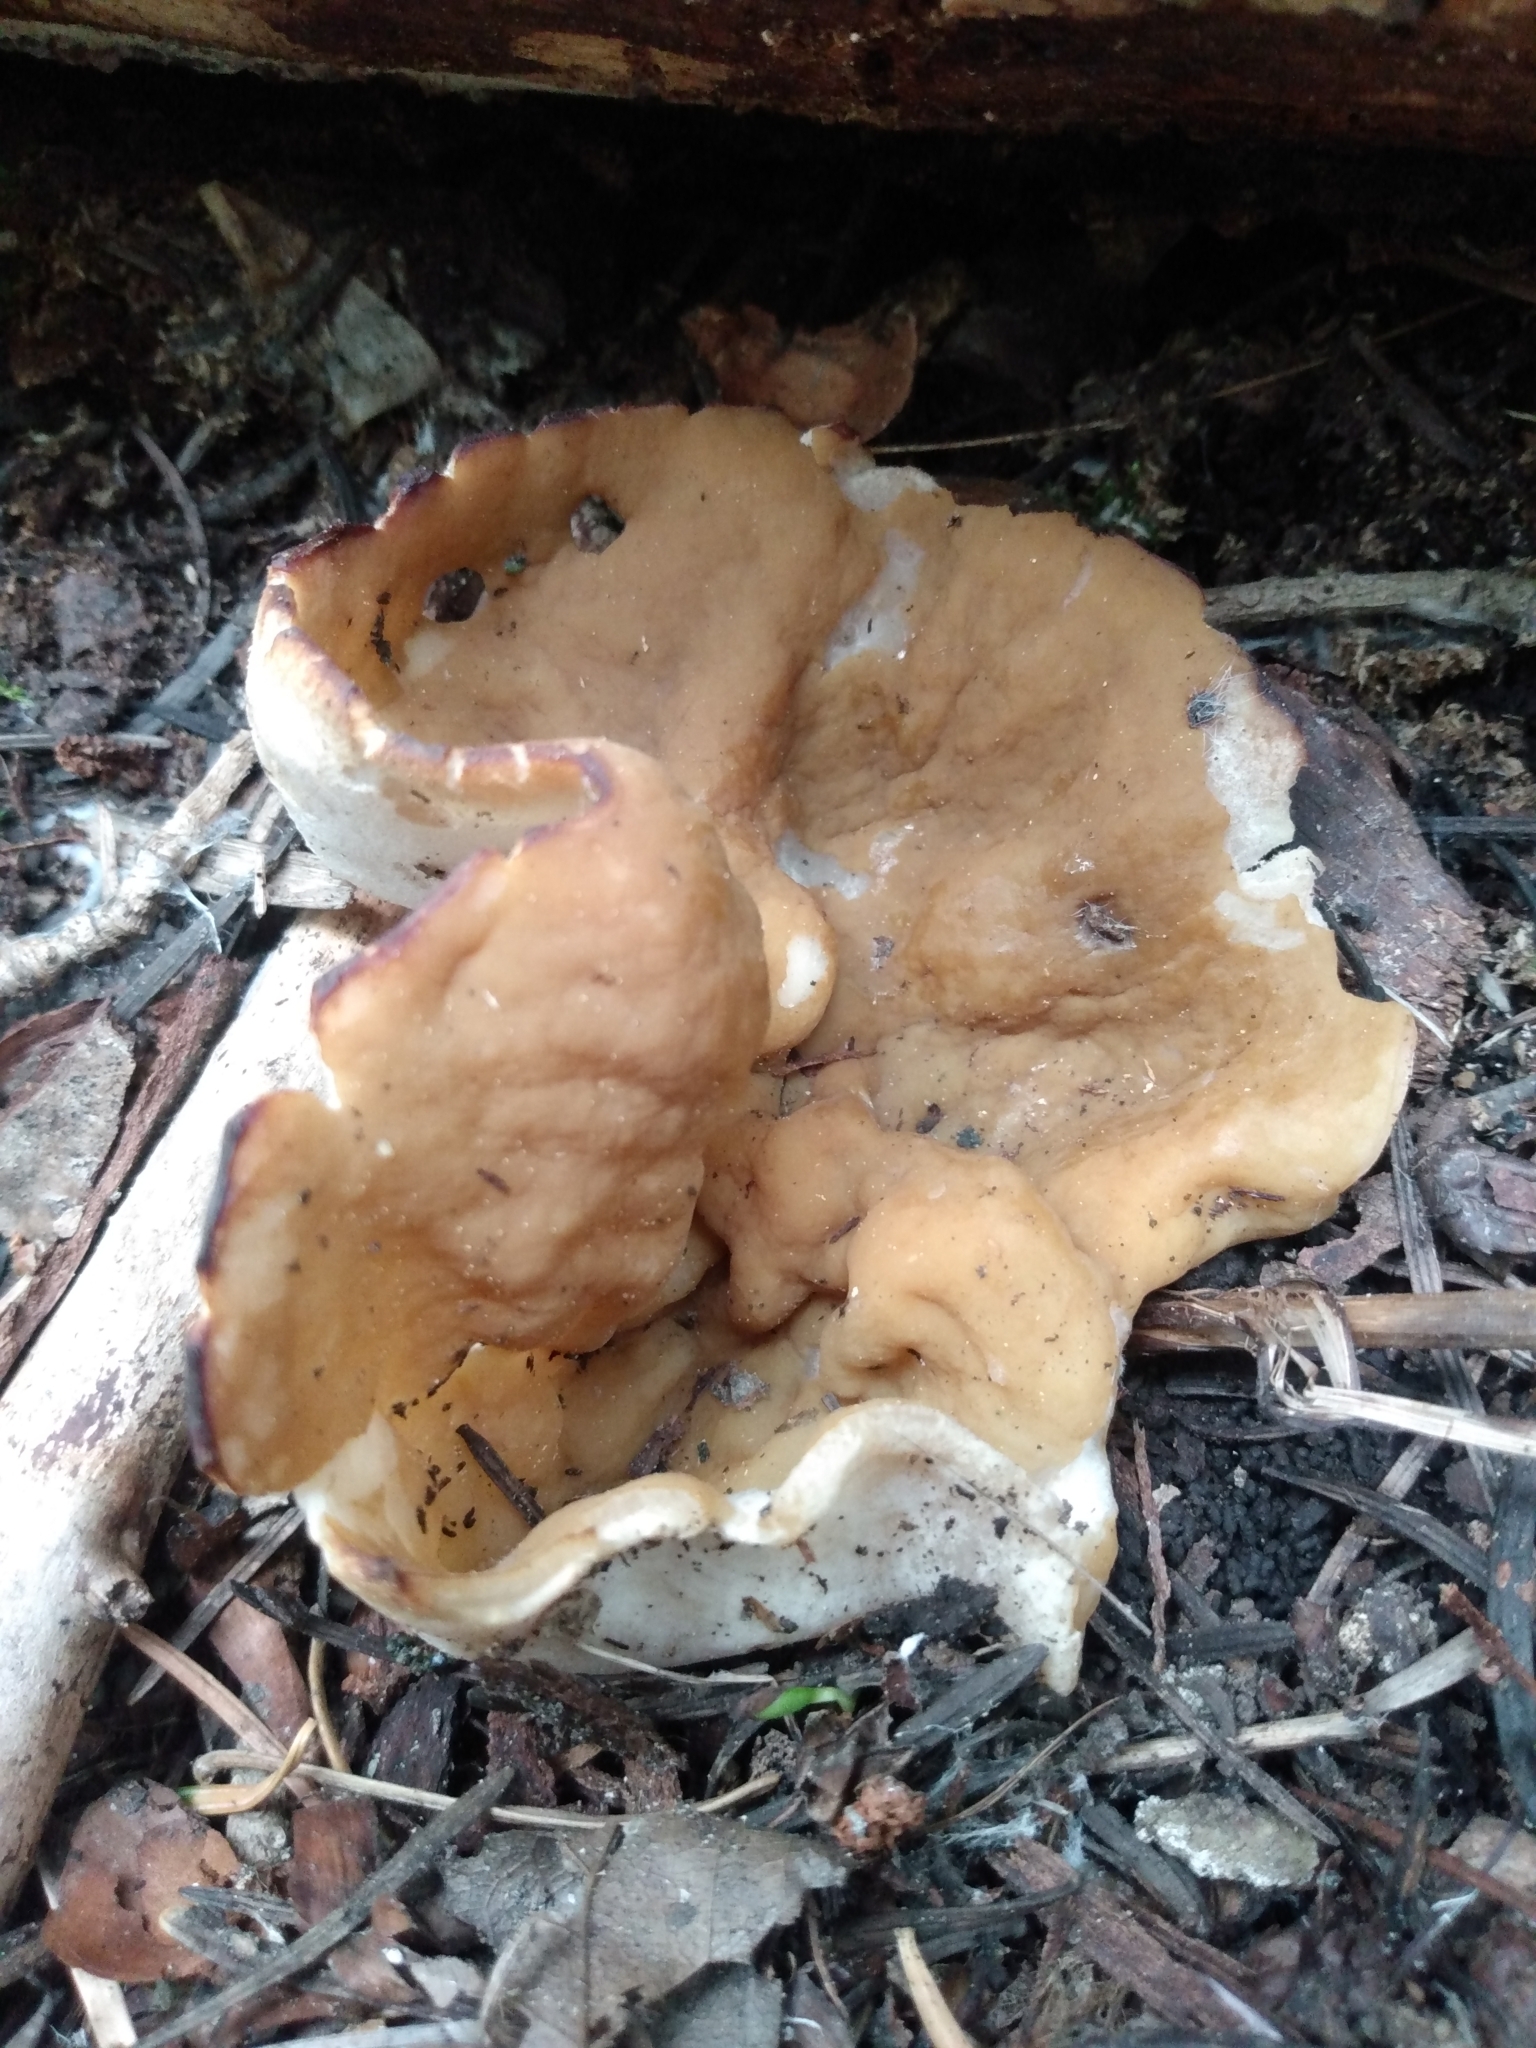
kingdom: Fungi
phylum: Ascomycota
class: Pezizomycetes
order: Pezizales
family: Discinaceae
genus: Discina
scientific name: Discina ancilis
